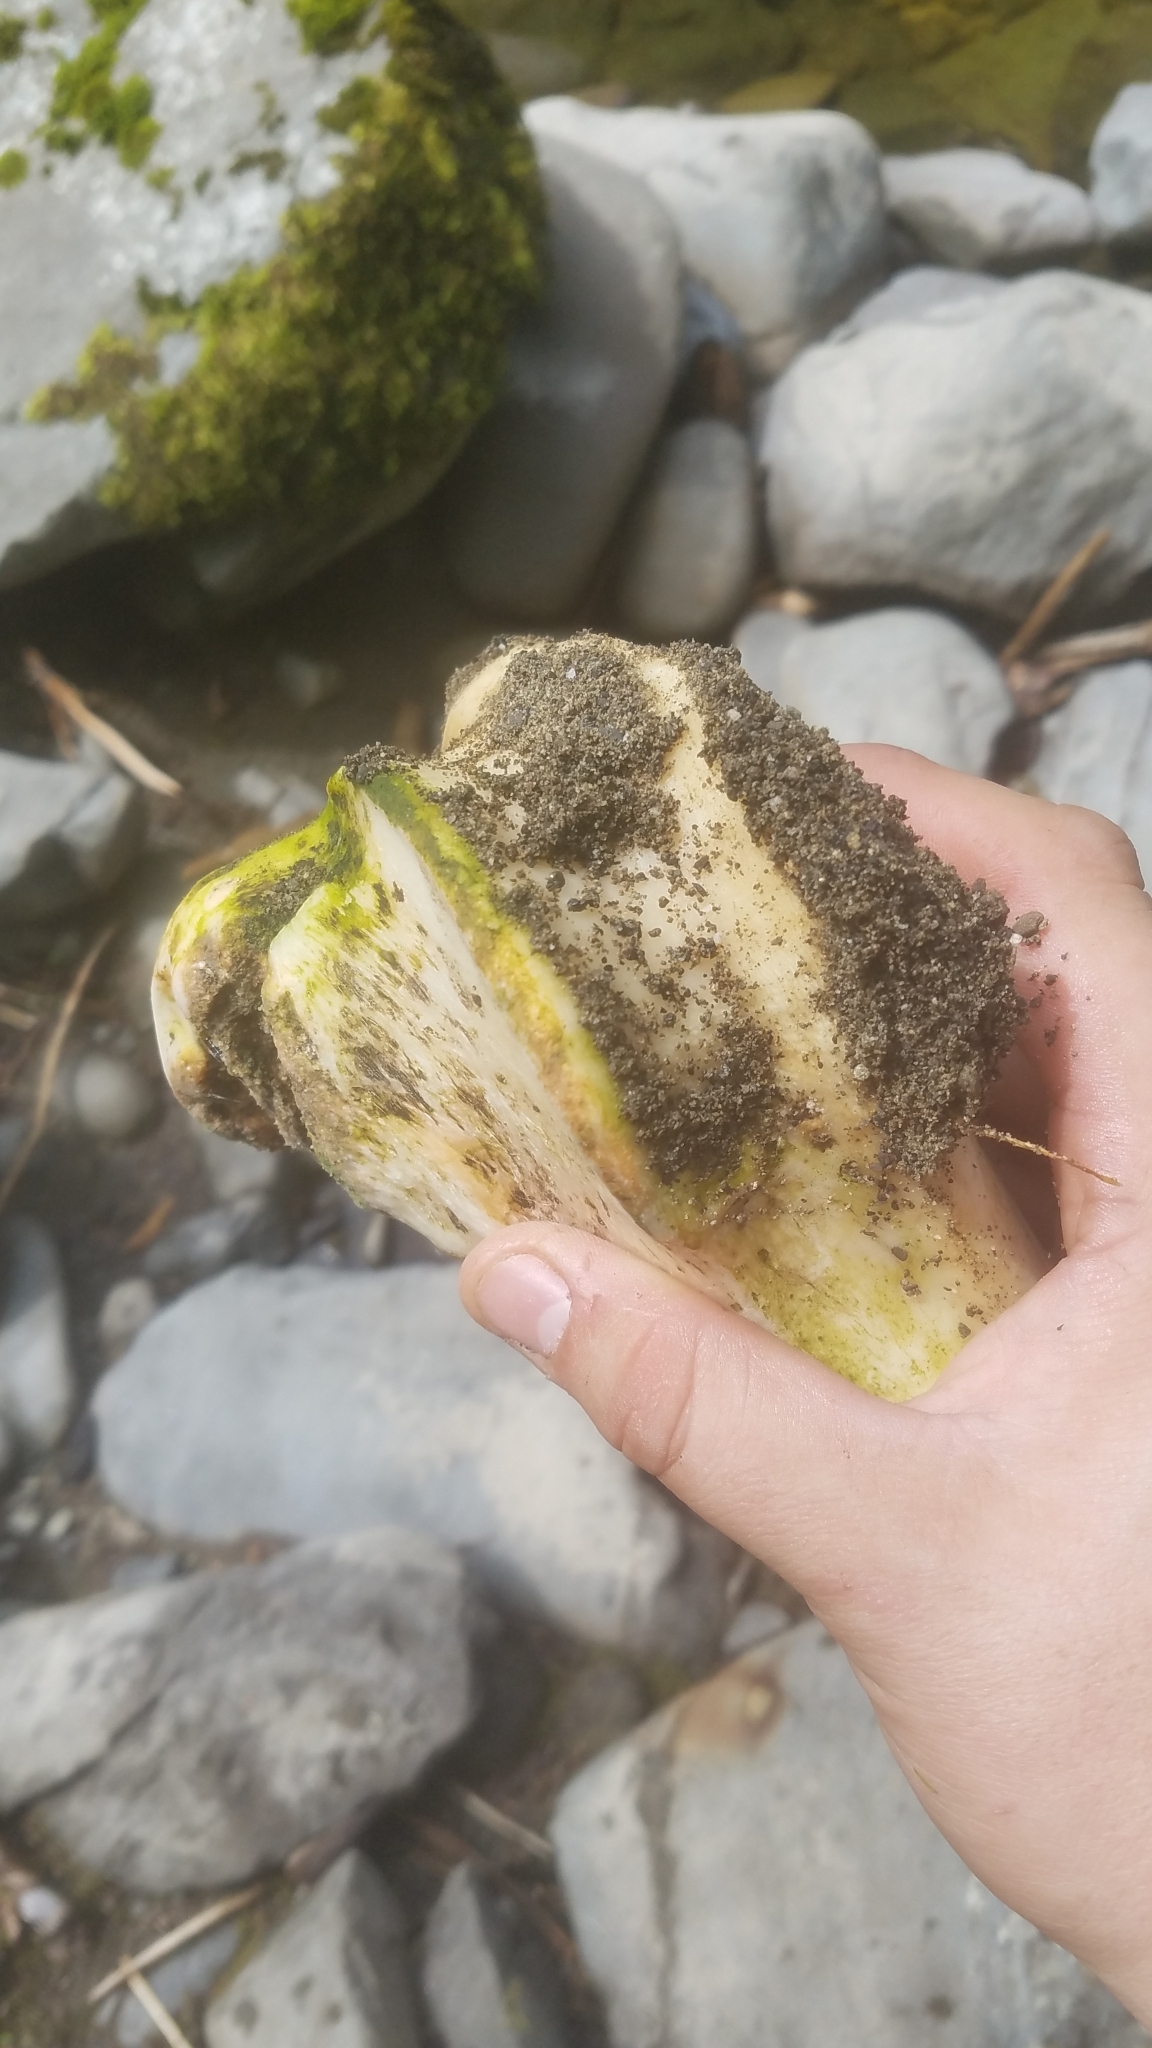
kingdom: Animalia
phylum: Chordata
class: Mammalia
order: Artiodactyla
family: Cervidae
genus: Cervus
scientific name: Cervus elaphus
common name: Red deer
